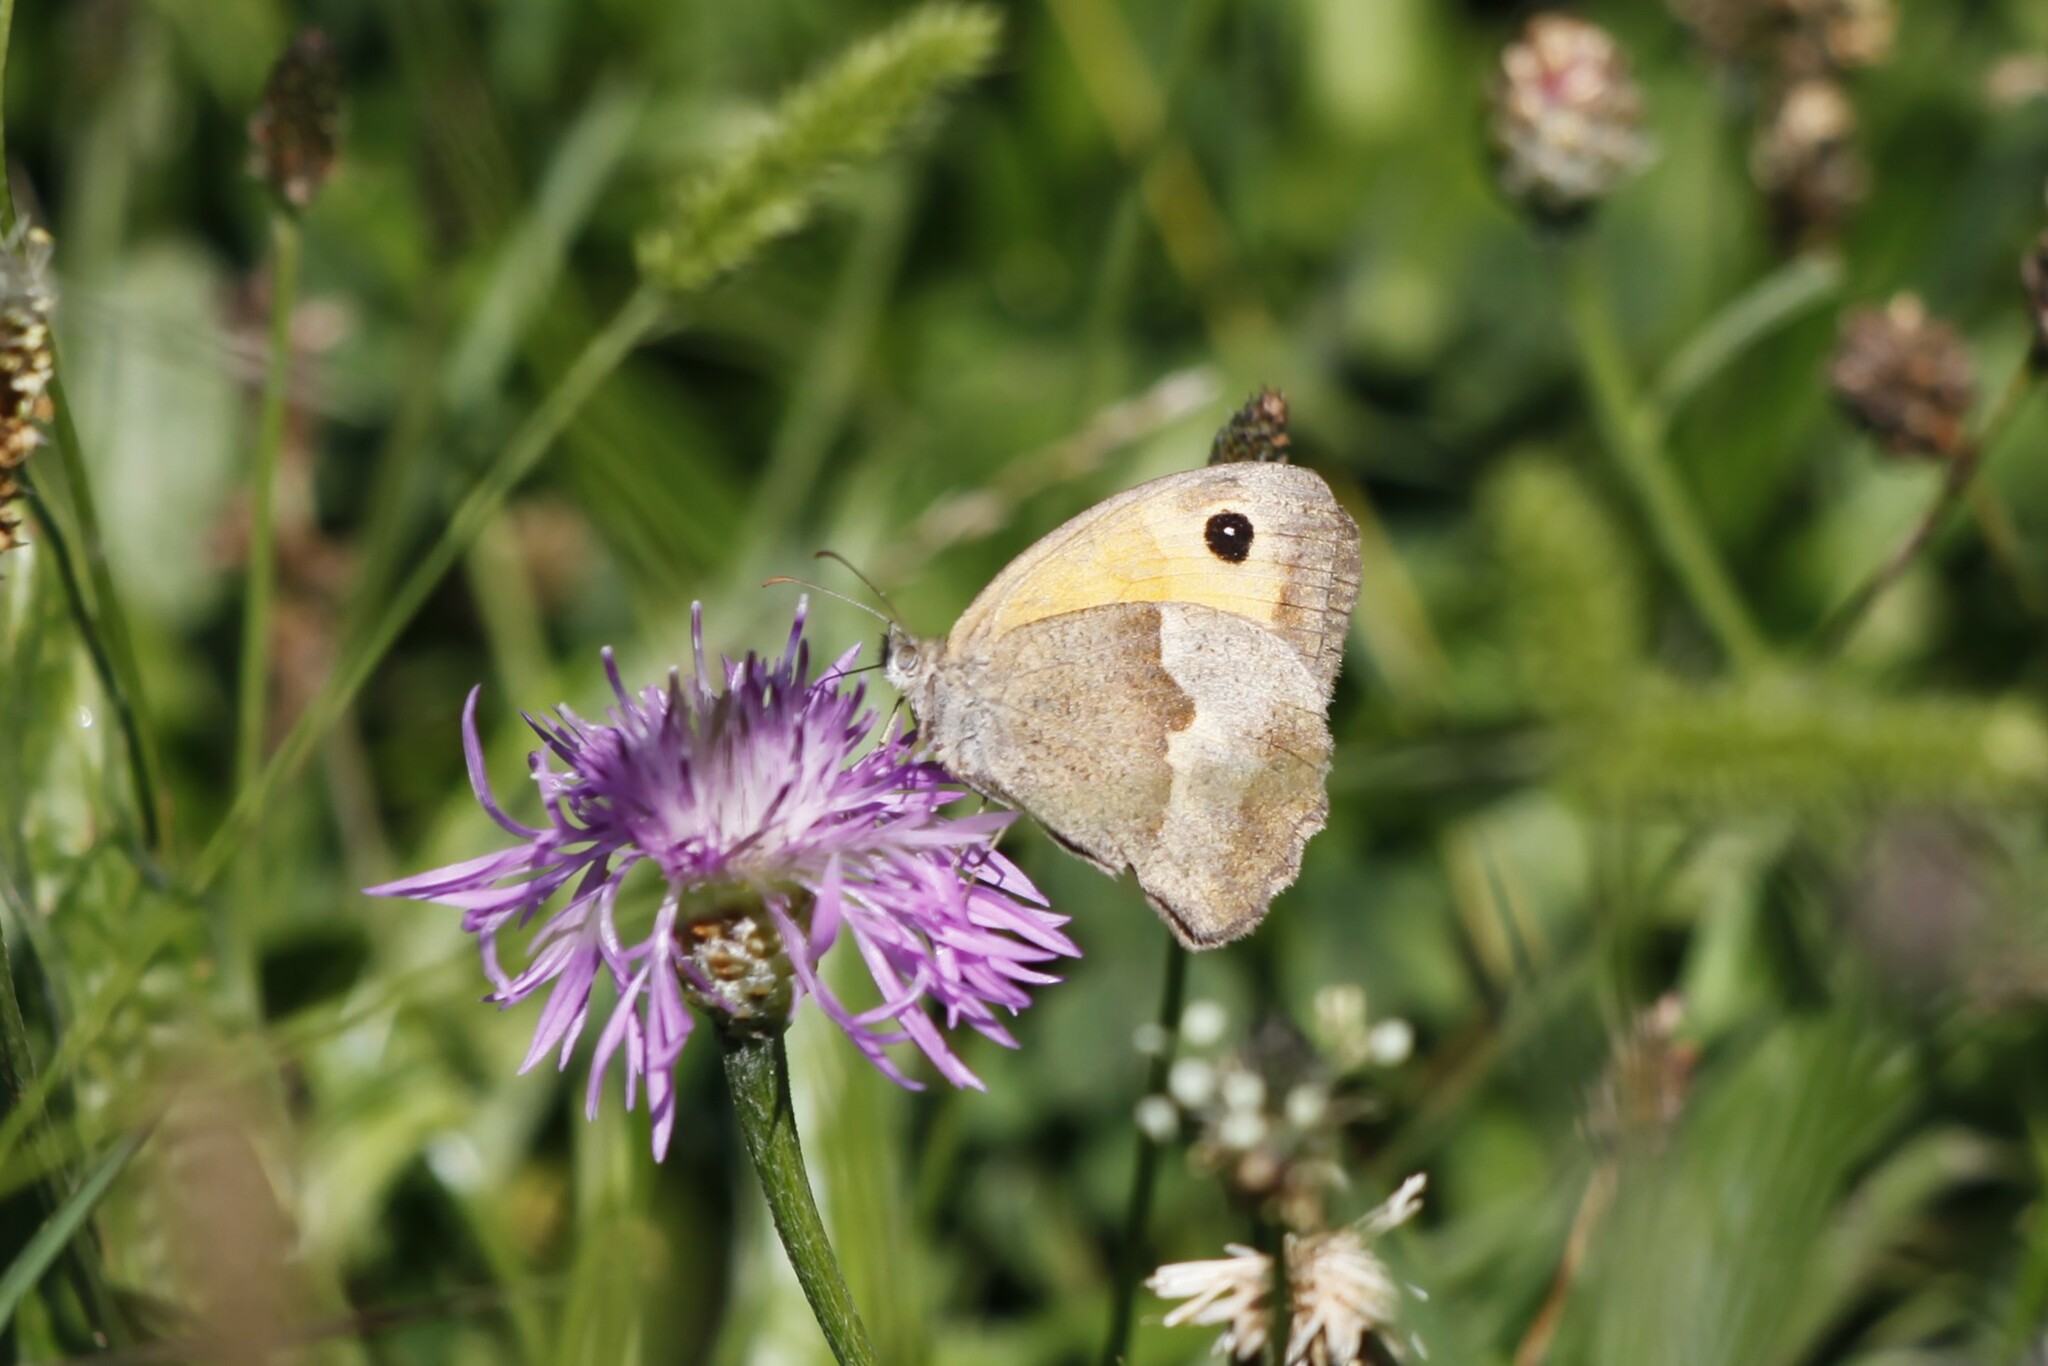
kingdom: Animalia
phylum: Arthropoda
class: Insecta
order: Lepidoptera
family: Nymphalidae
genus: Maniola
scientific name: Maniola jurtina
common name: Meadow brown
